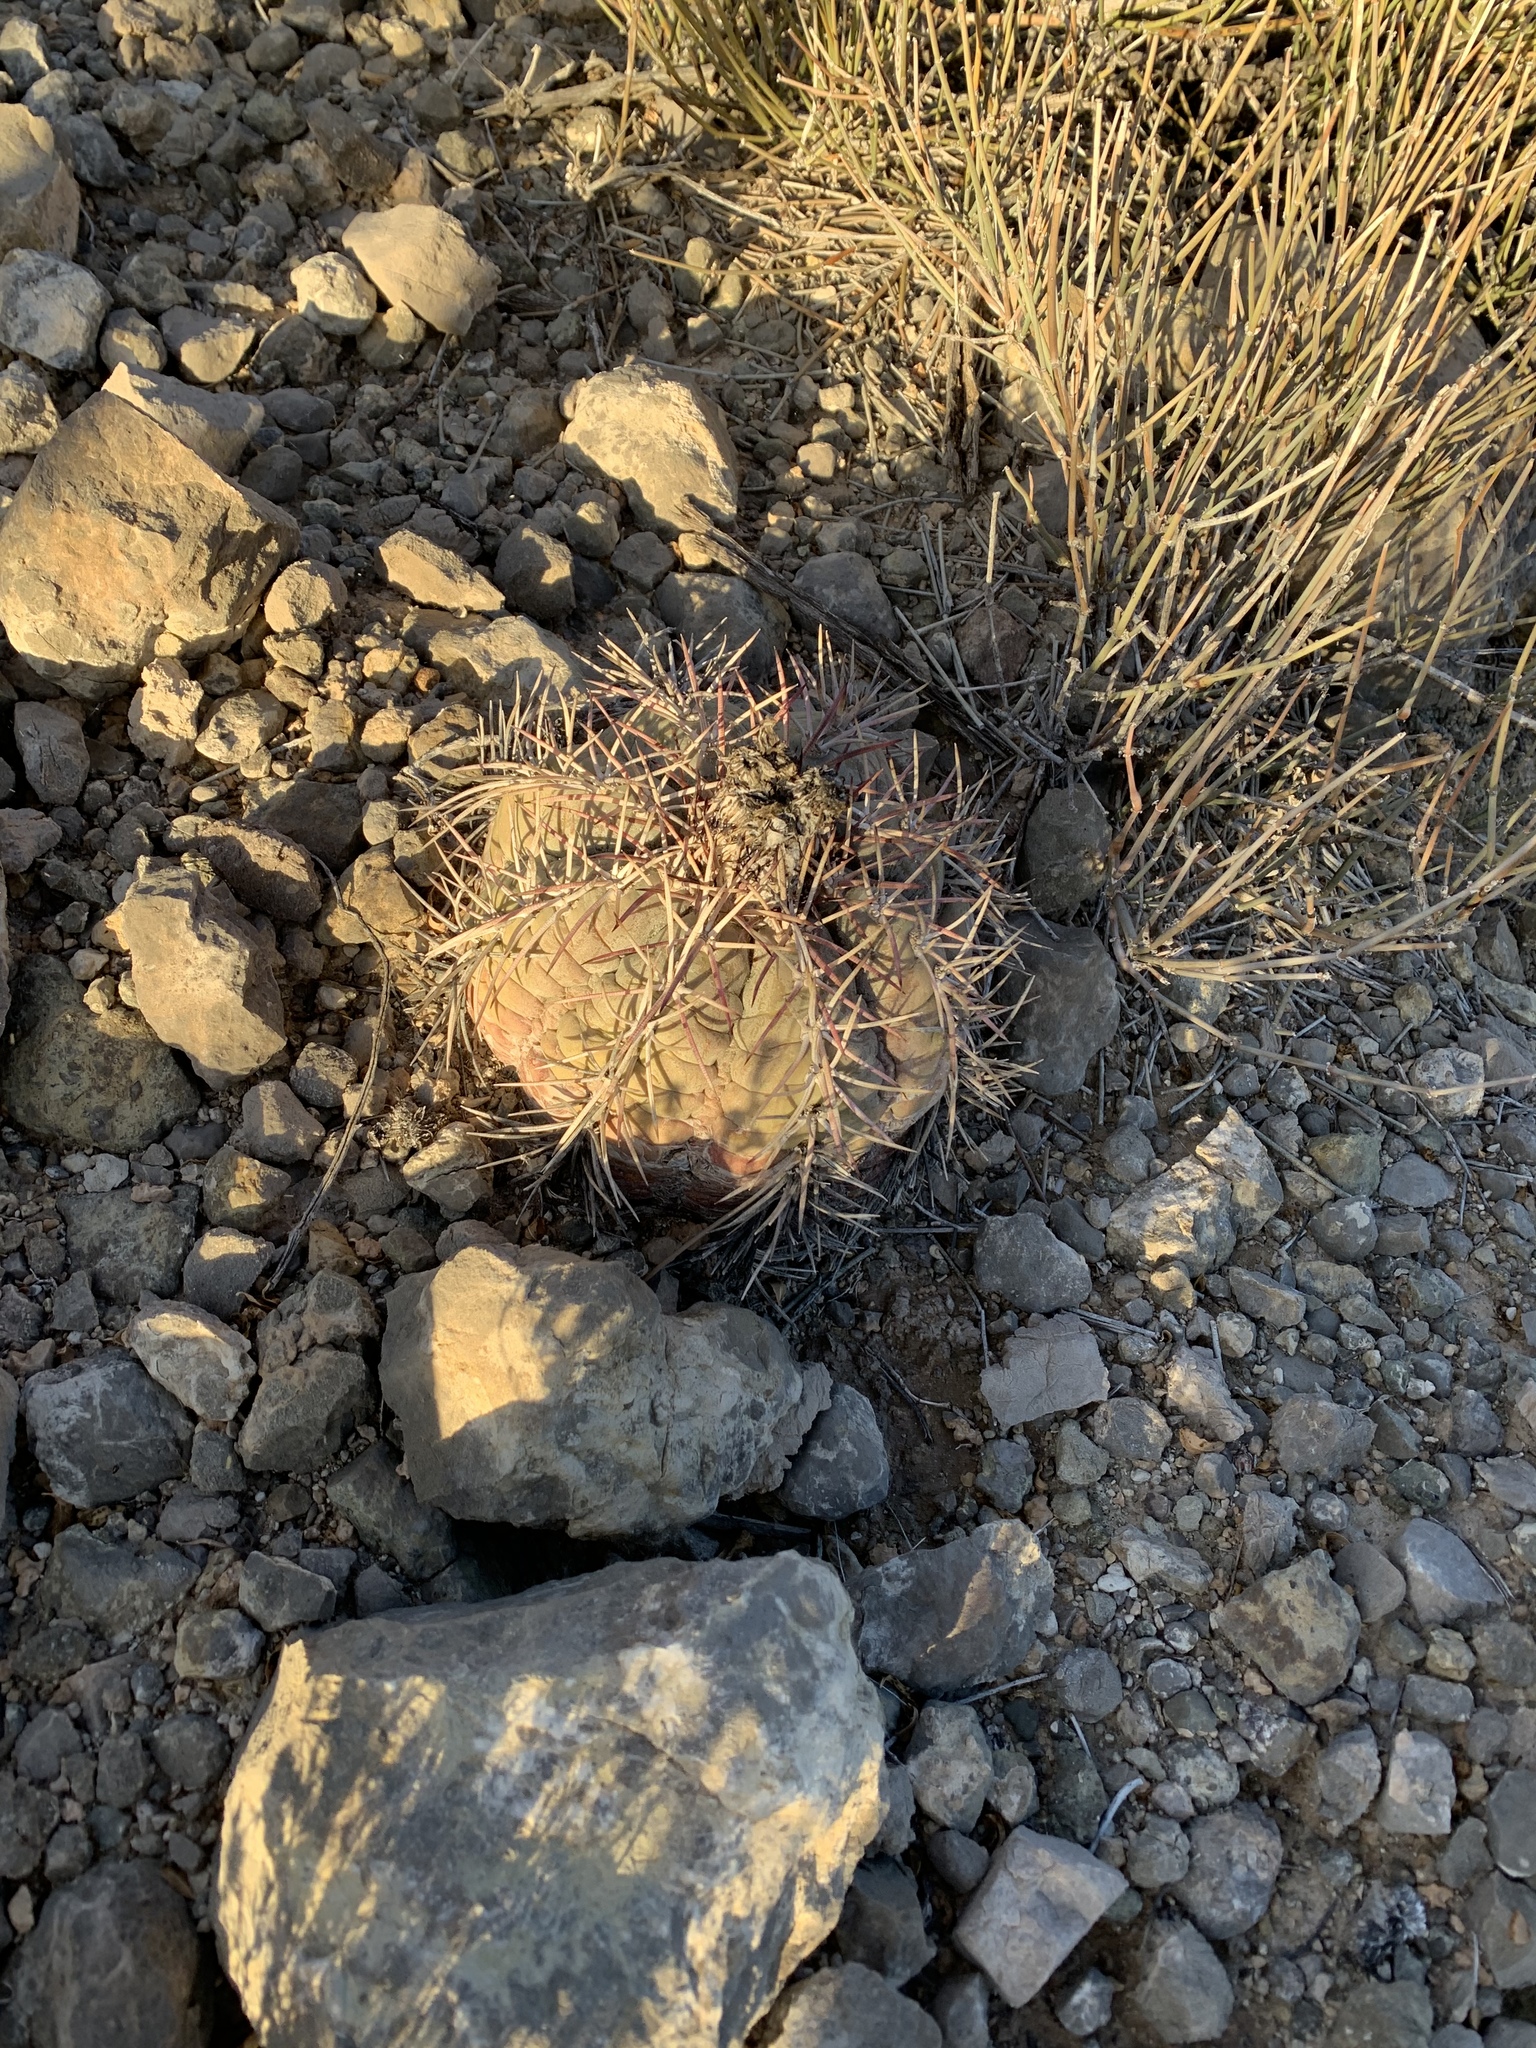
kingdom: Plantae
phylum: Tracheophyta
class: Magnoliopsida
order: Caryophyllales
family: Cactaceae
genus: Echinocactus
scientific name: Echinocactus horizonthalonius
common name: Devilshead
